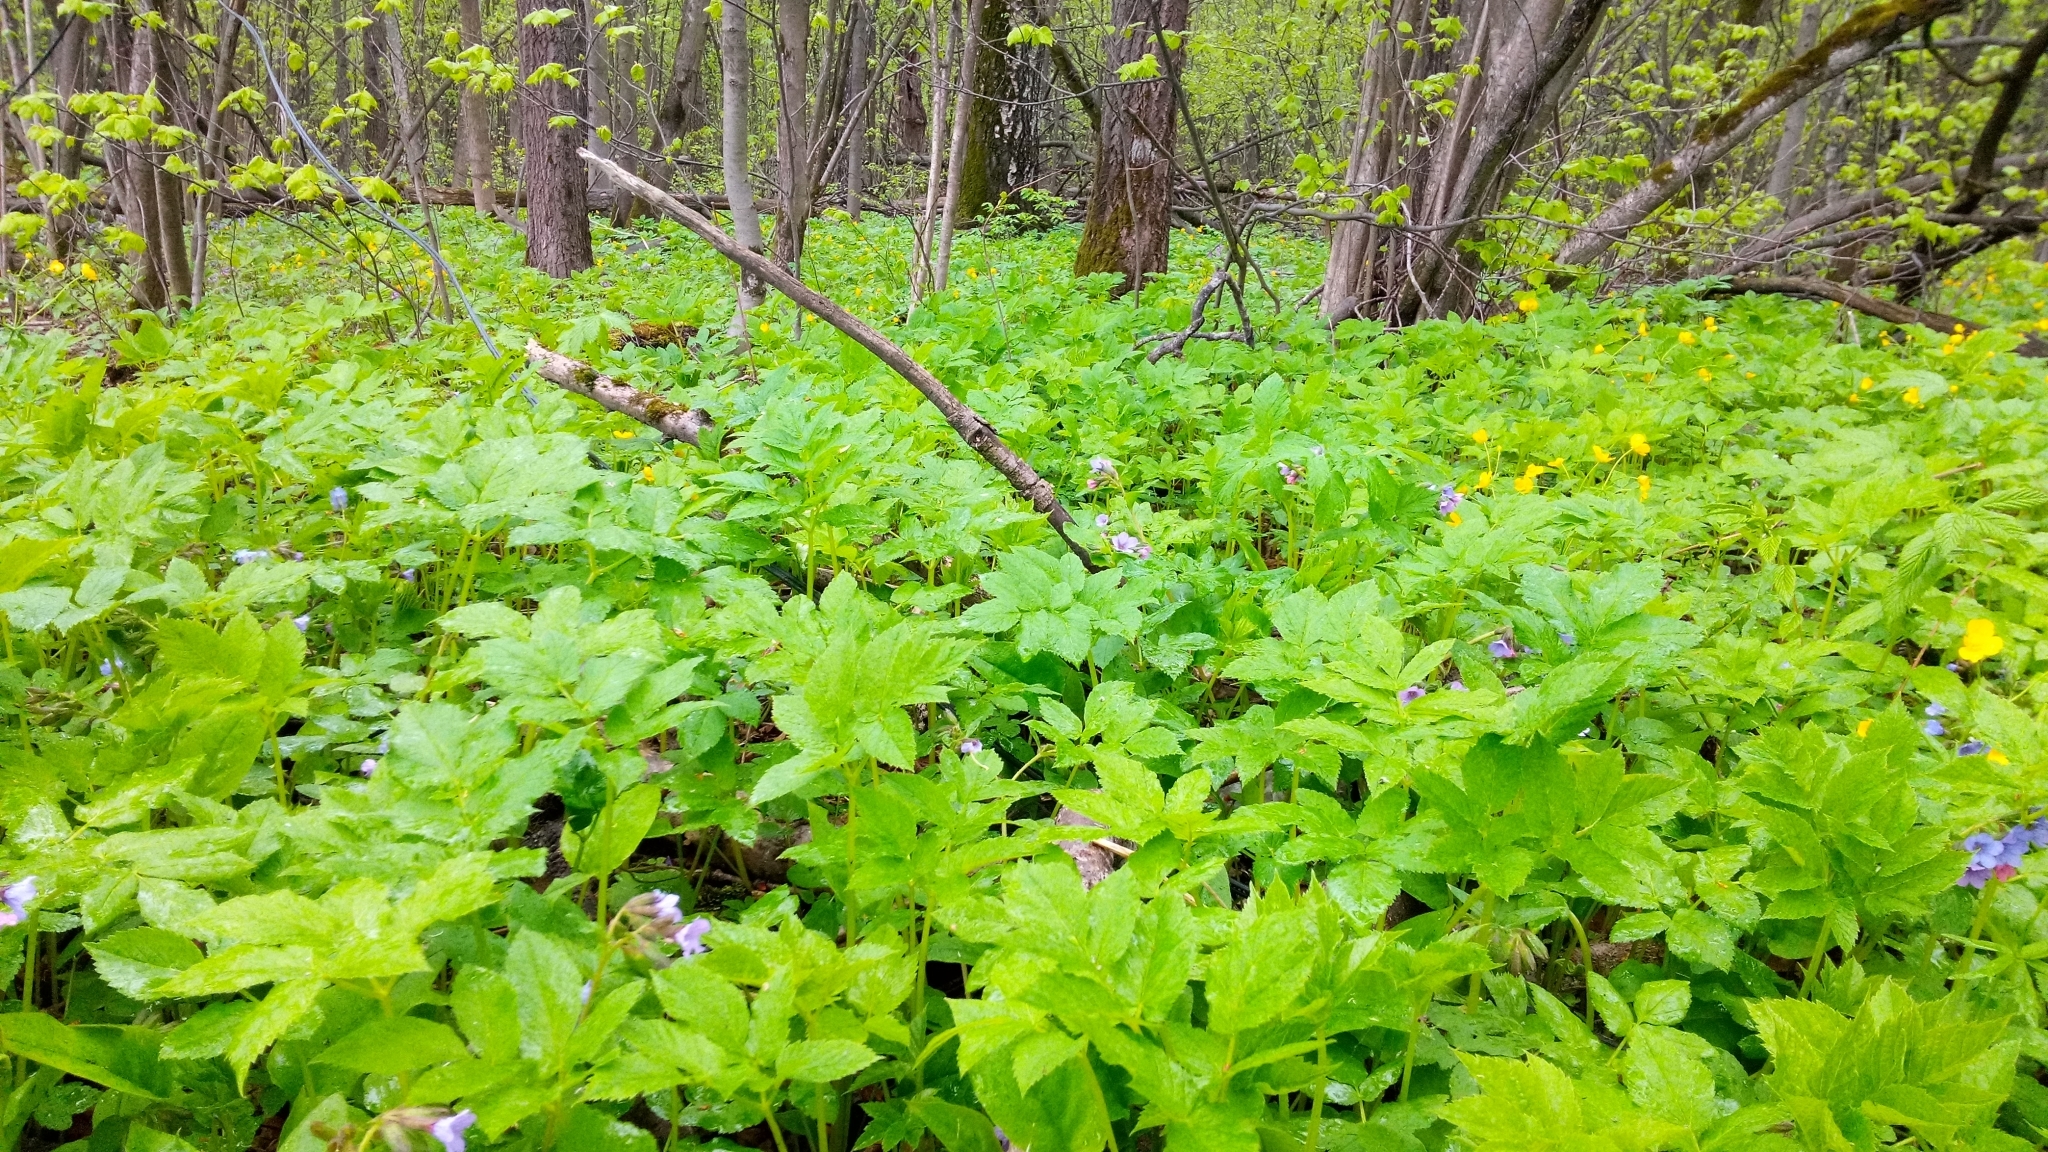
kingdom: Plantae
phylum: Tracheophyta
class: Magnoliopsida
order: Apiales
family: Apiaceae
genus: Aegopodium
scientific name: Aegopodium podagraria
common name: Ground-elder
